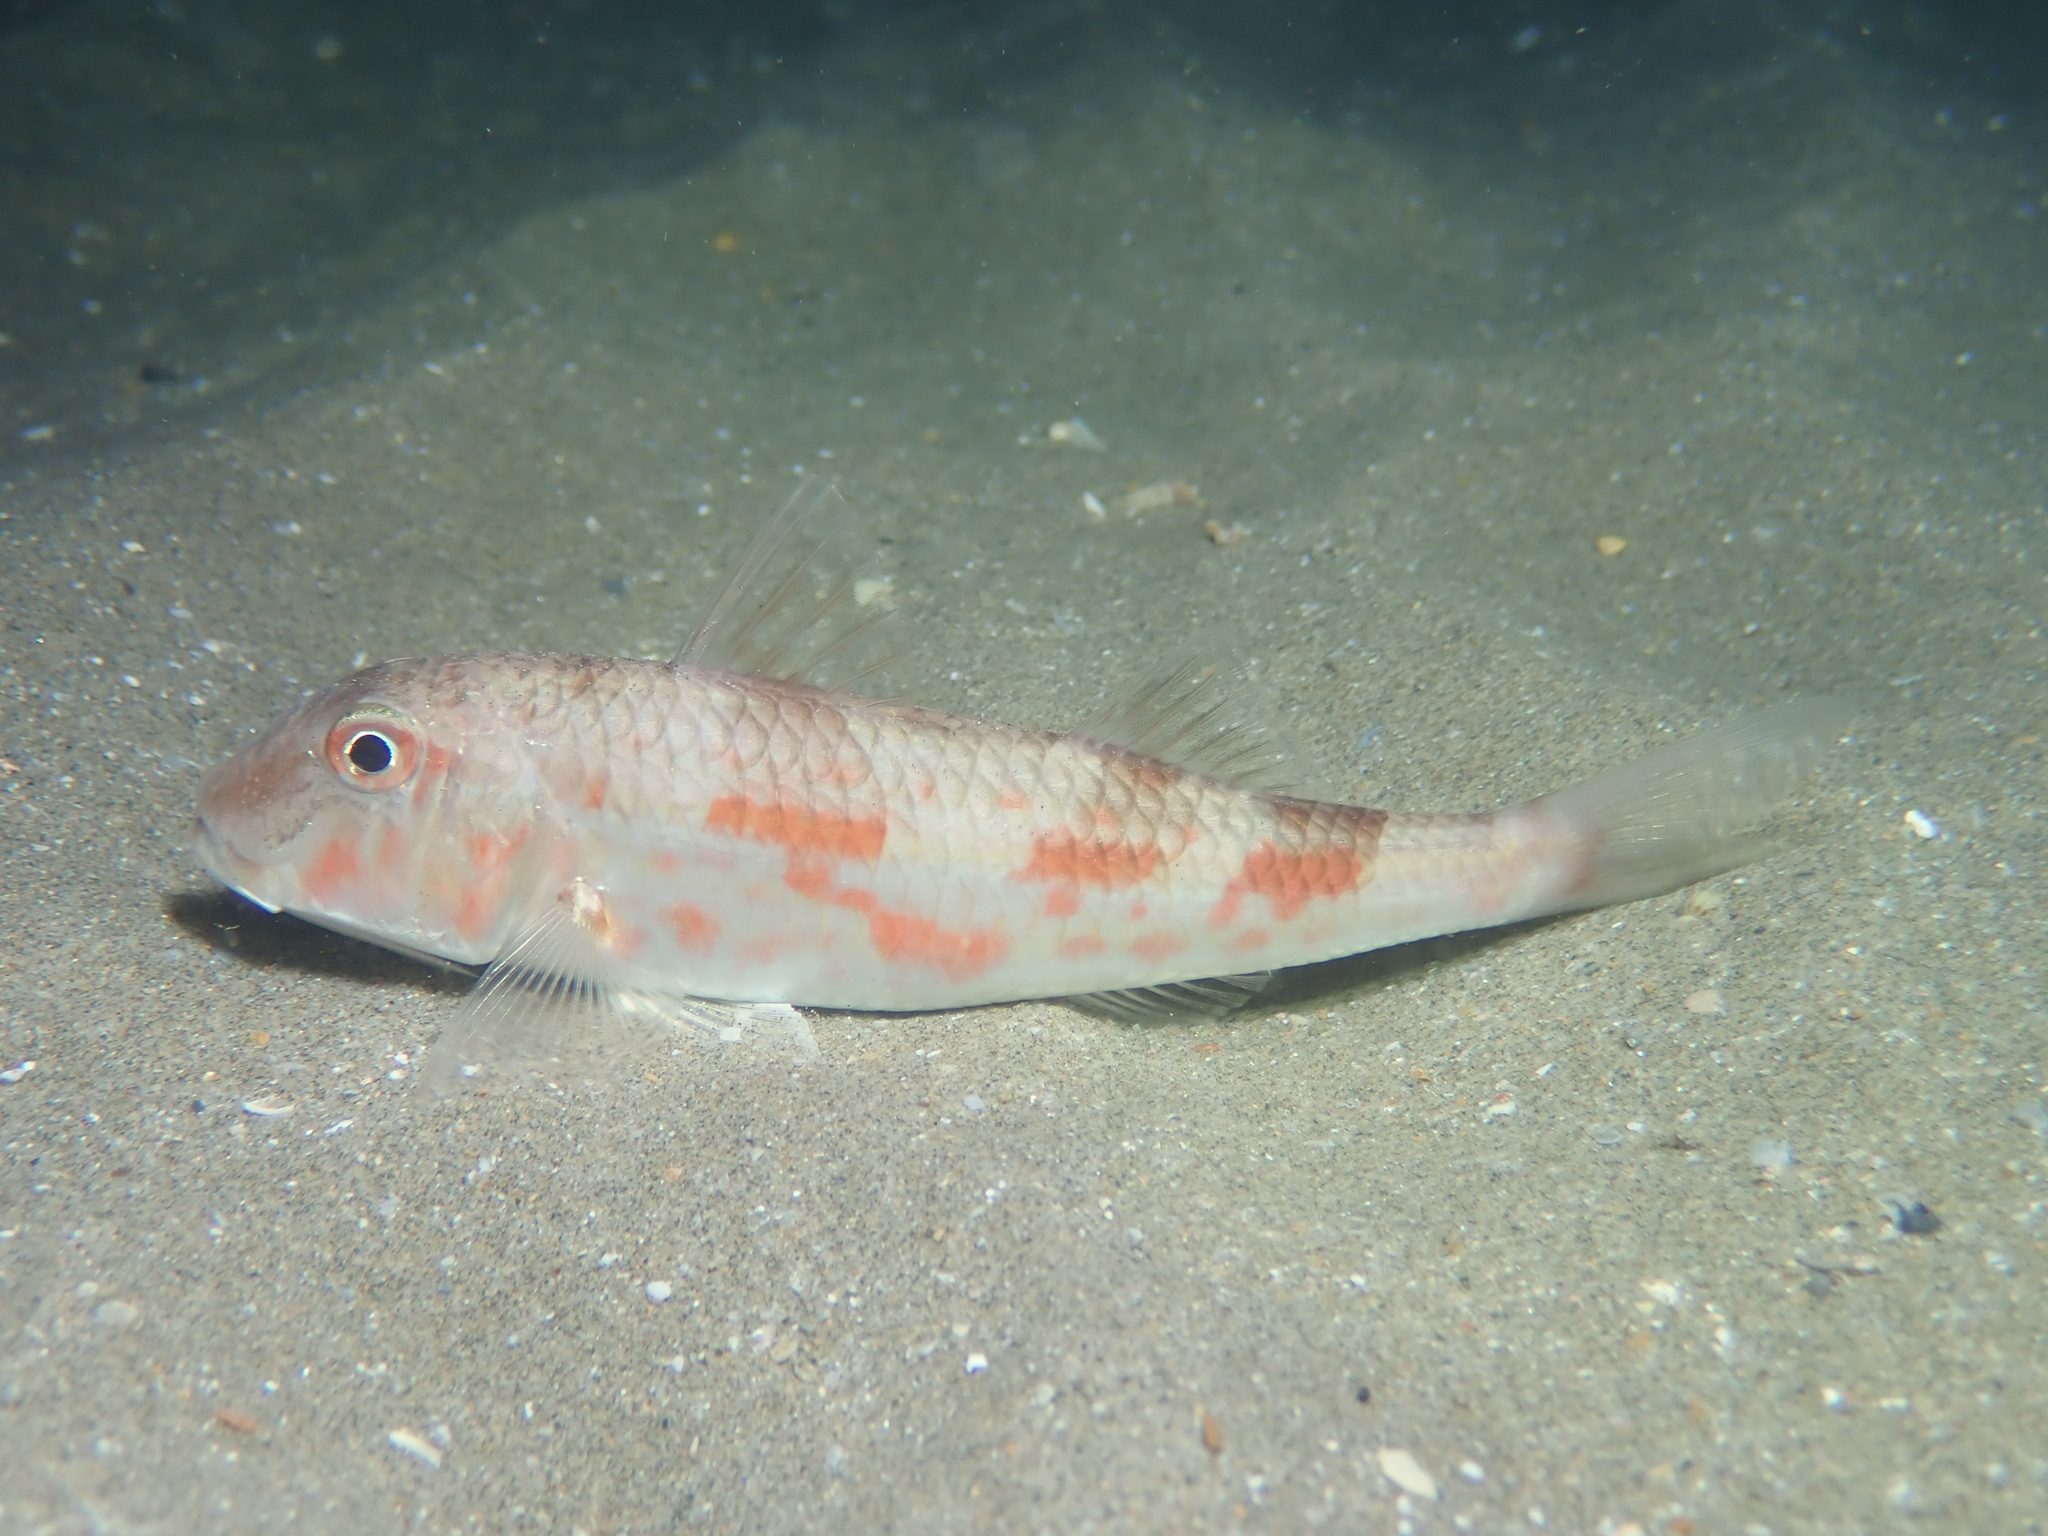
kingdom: Animalia
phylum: Chordata
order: Perciformes
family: Mullidae
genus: Mullus
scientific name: Mullus barbatus
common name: Blunt-snouted mullet
